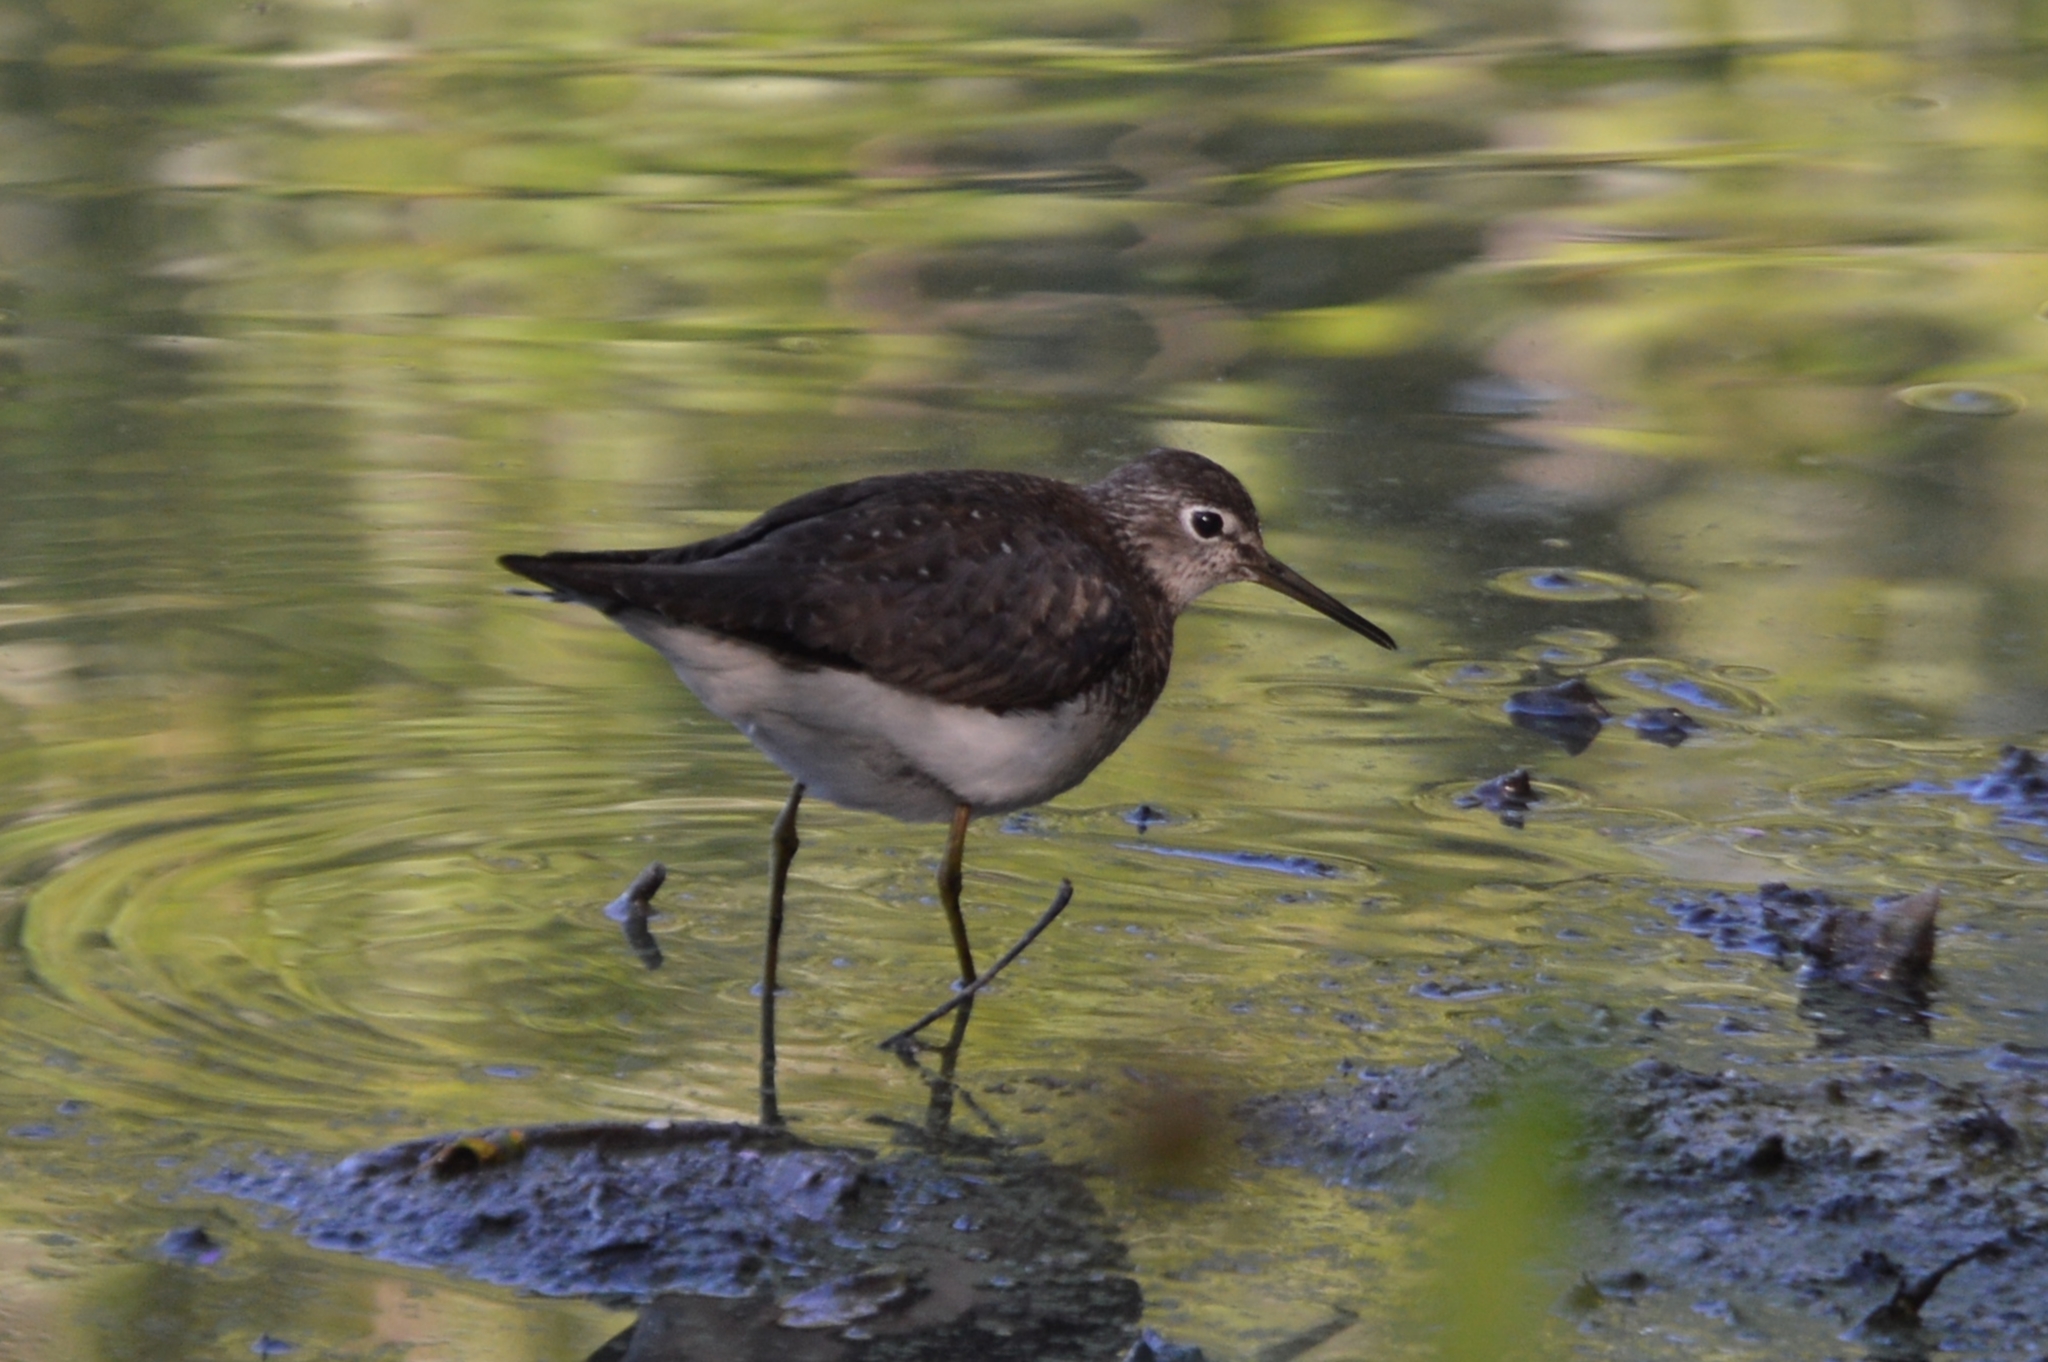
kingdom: Animalia
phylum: Chordata
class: Aves
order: Charadriiformes
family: Scolopacidae
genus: Tringa
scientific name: Tringa solitaria
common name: Solitary sandpiper
